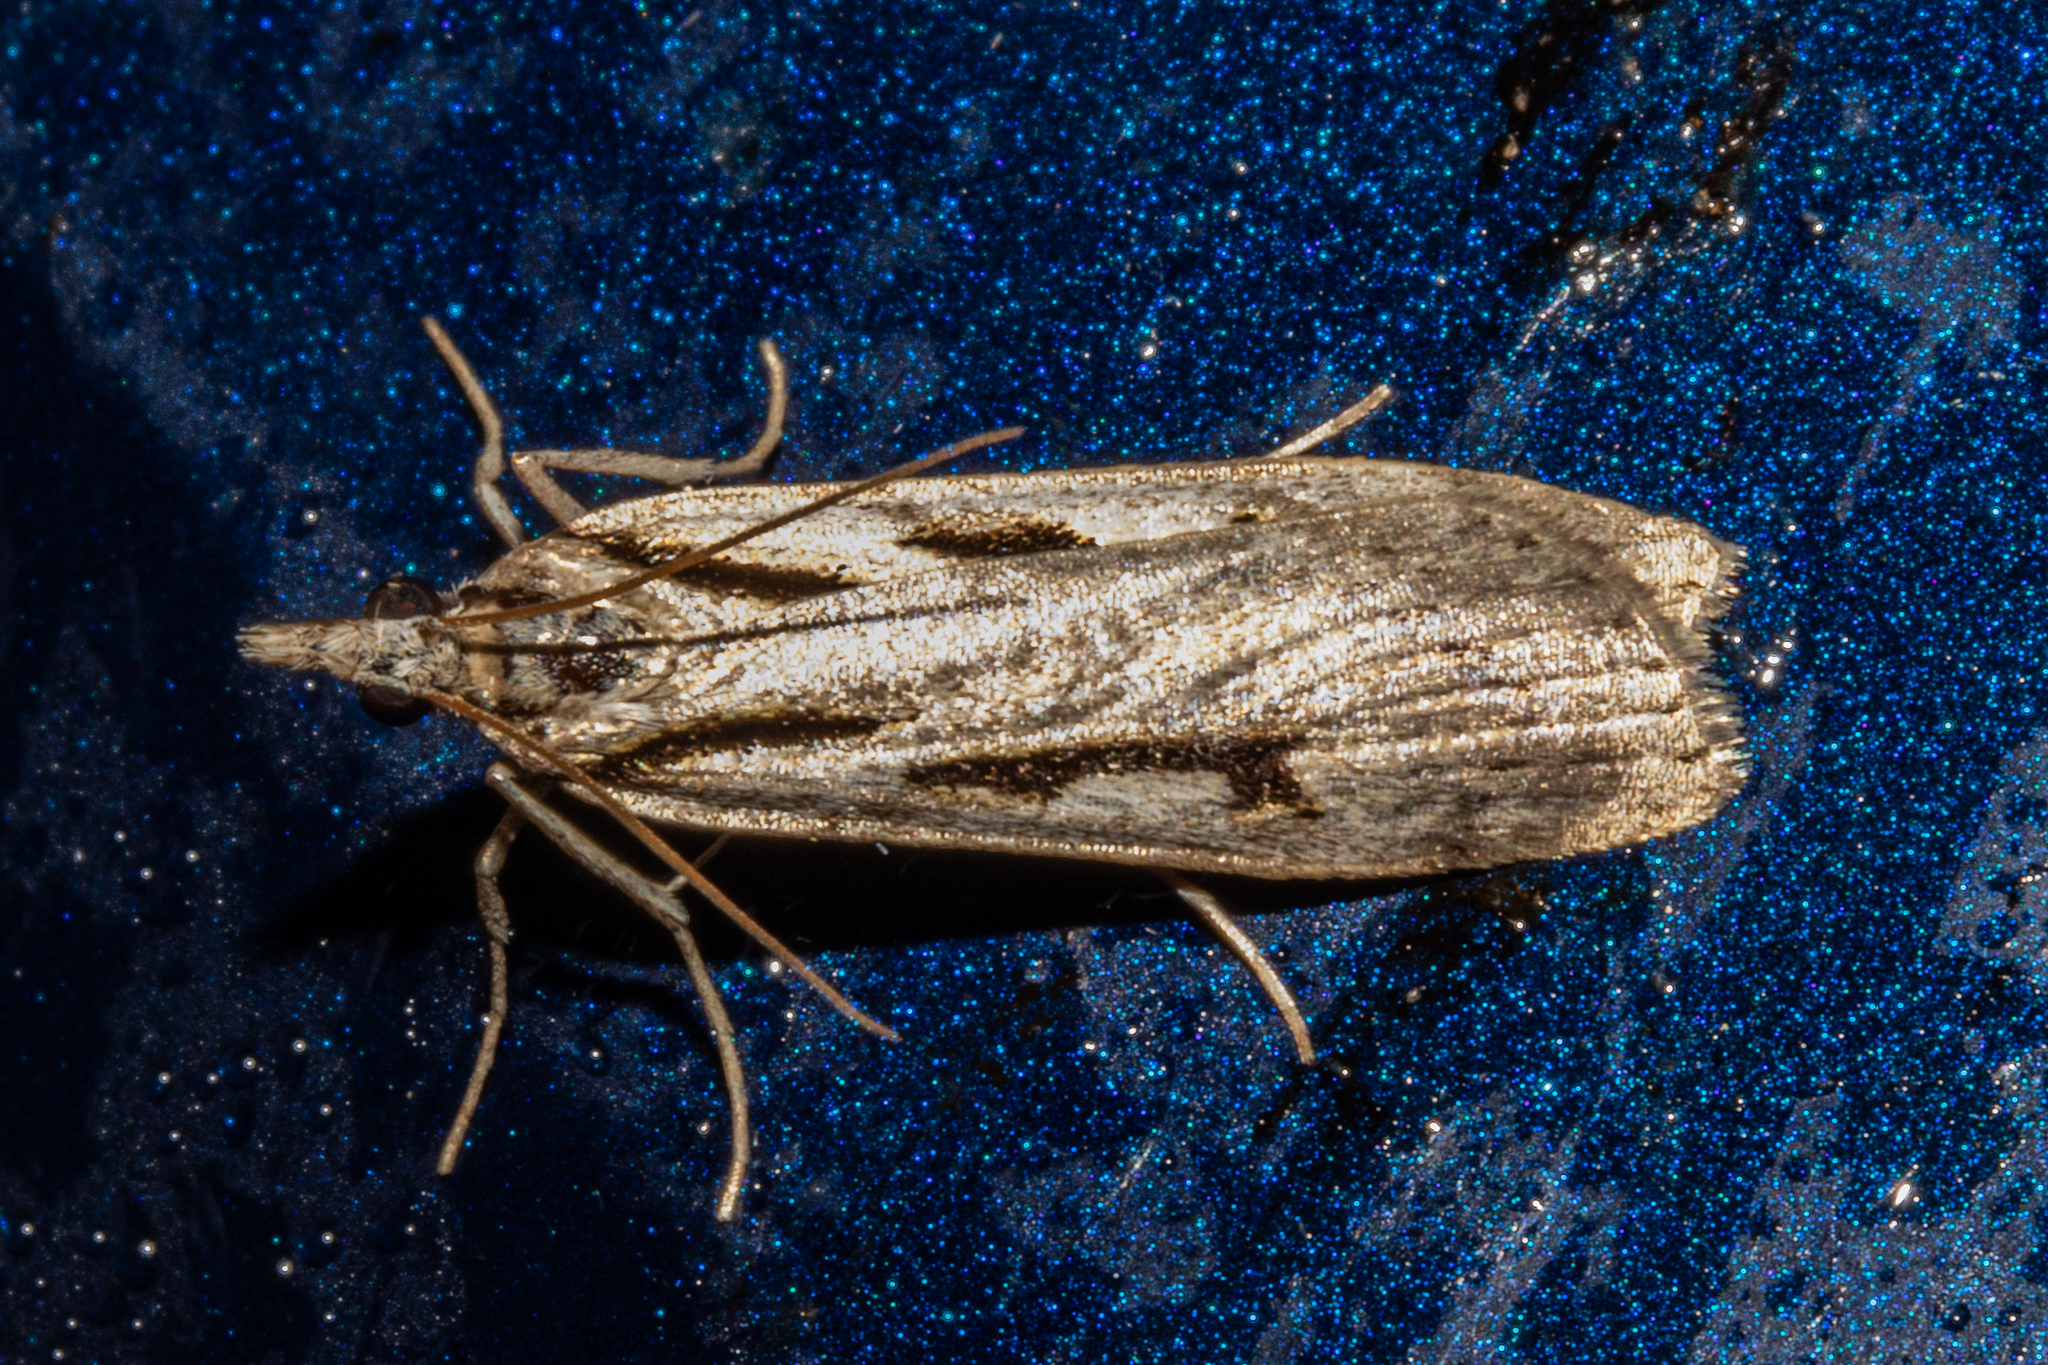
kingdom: Animalia
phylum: Arthropoda
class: Insecta
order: Lepidoptera
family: Crambidae
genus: Scoparia
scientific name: Scoparia rotuellus
